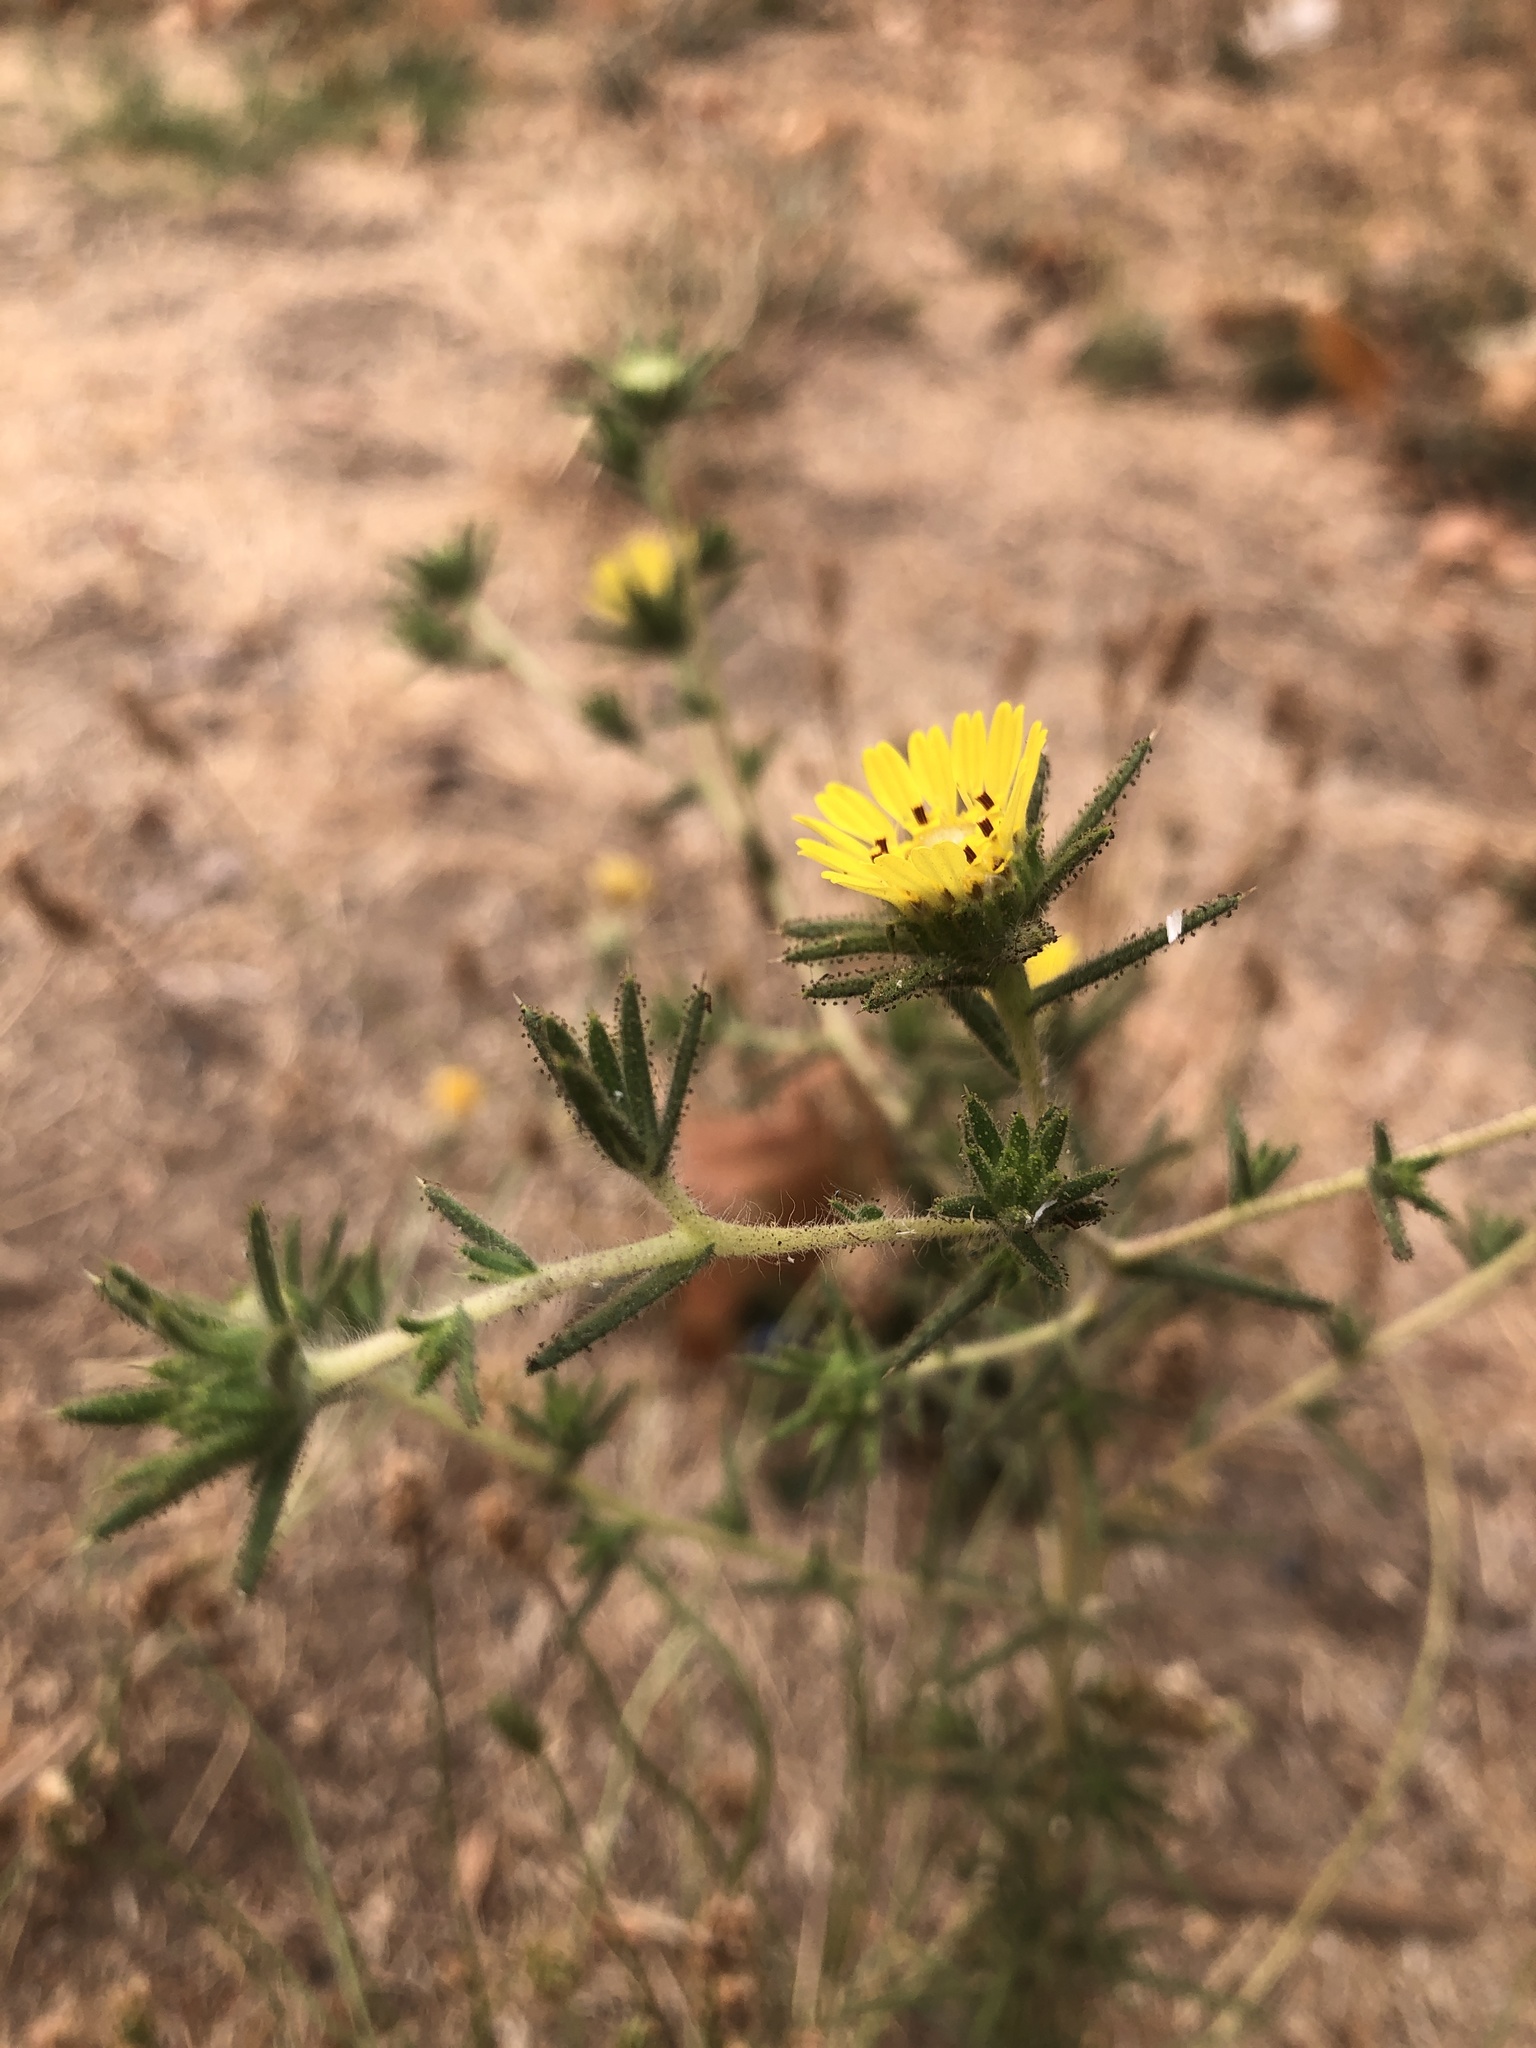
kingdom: Plantae
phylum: Tracheophyta
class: Magnoliopsida
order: Asterales
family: Asteraceae
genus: Centromadia
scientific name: Centromadia fitchii
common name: Fitch's spikeweed
